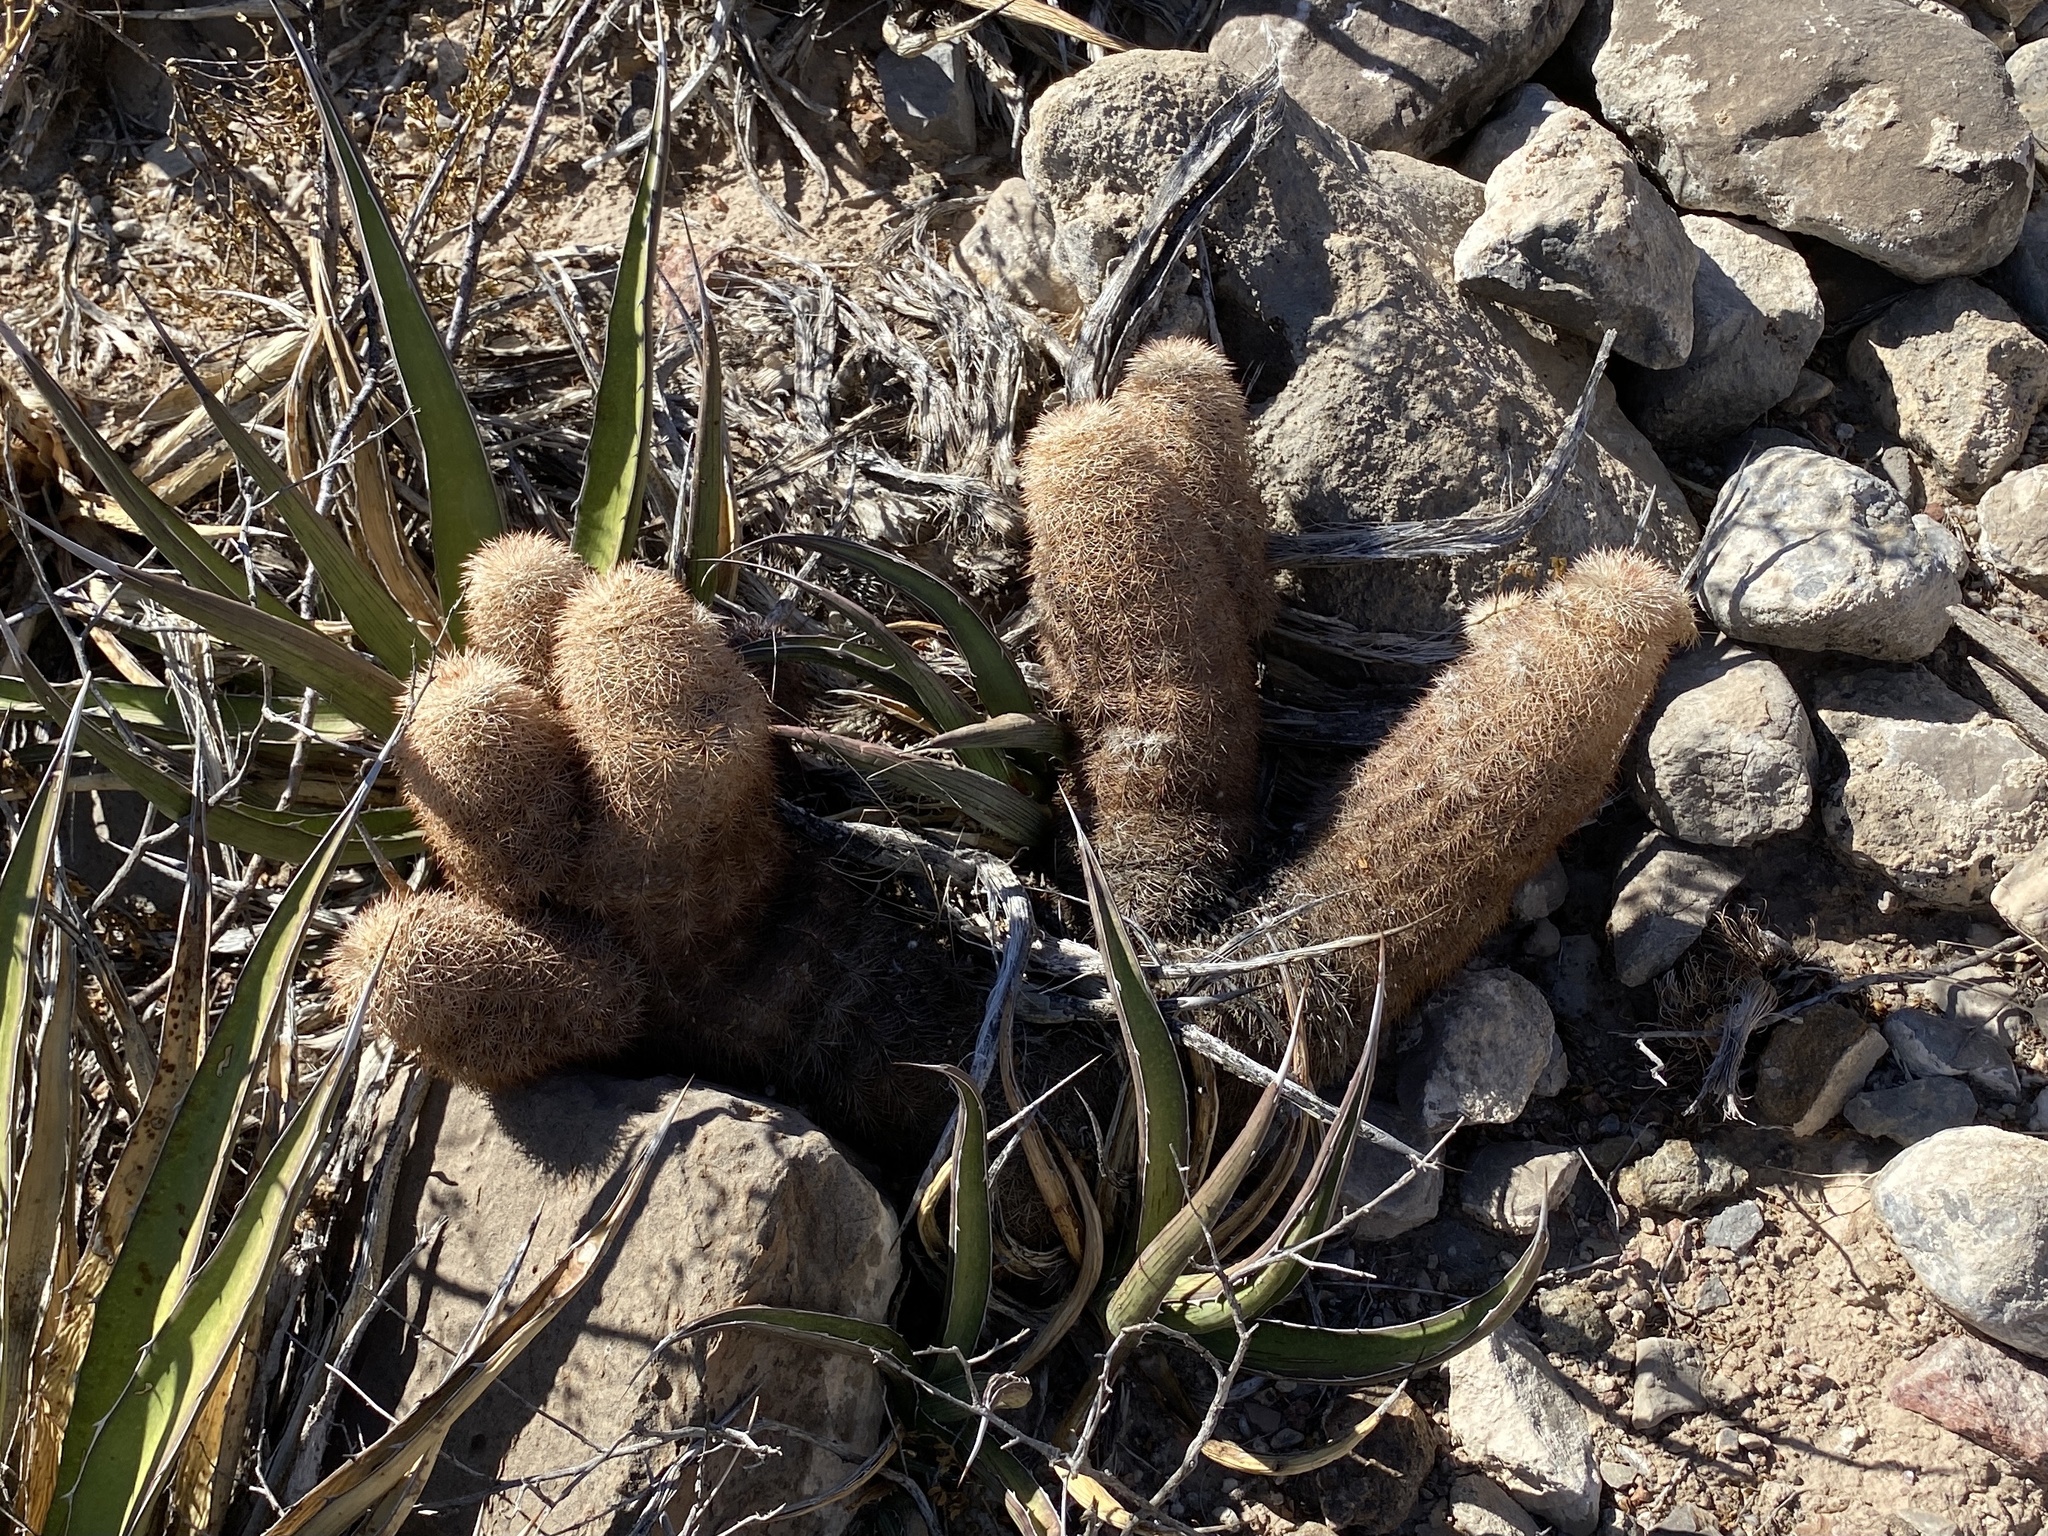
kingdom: Plantae
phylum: Tracheophyta
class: Magnoliopsida
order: Caryophyllales
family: Cactaceae
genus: Echinocereus
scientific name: Echinocereus dasyacanthus
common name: Spiny hedgehog cactus
